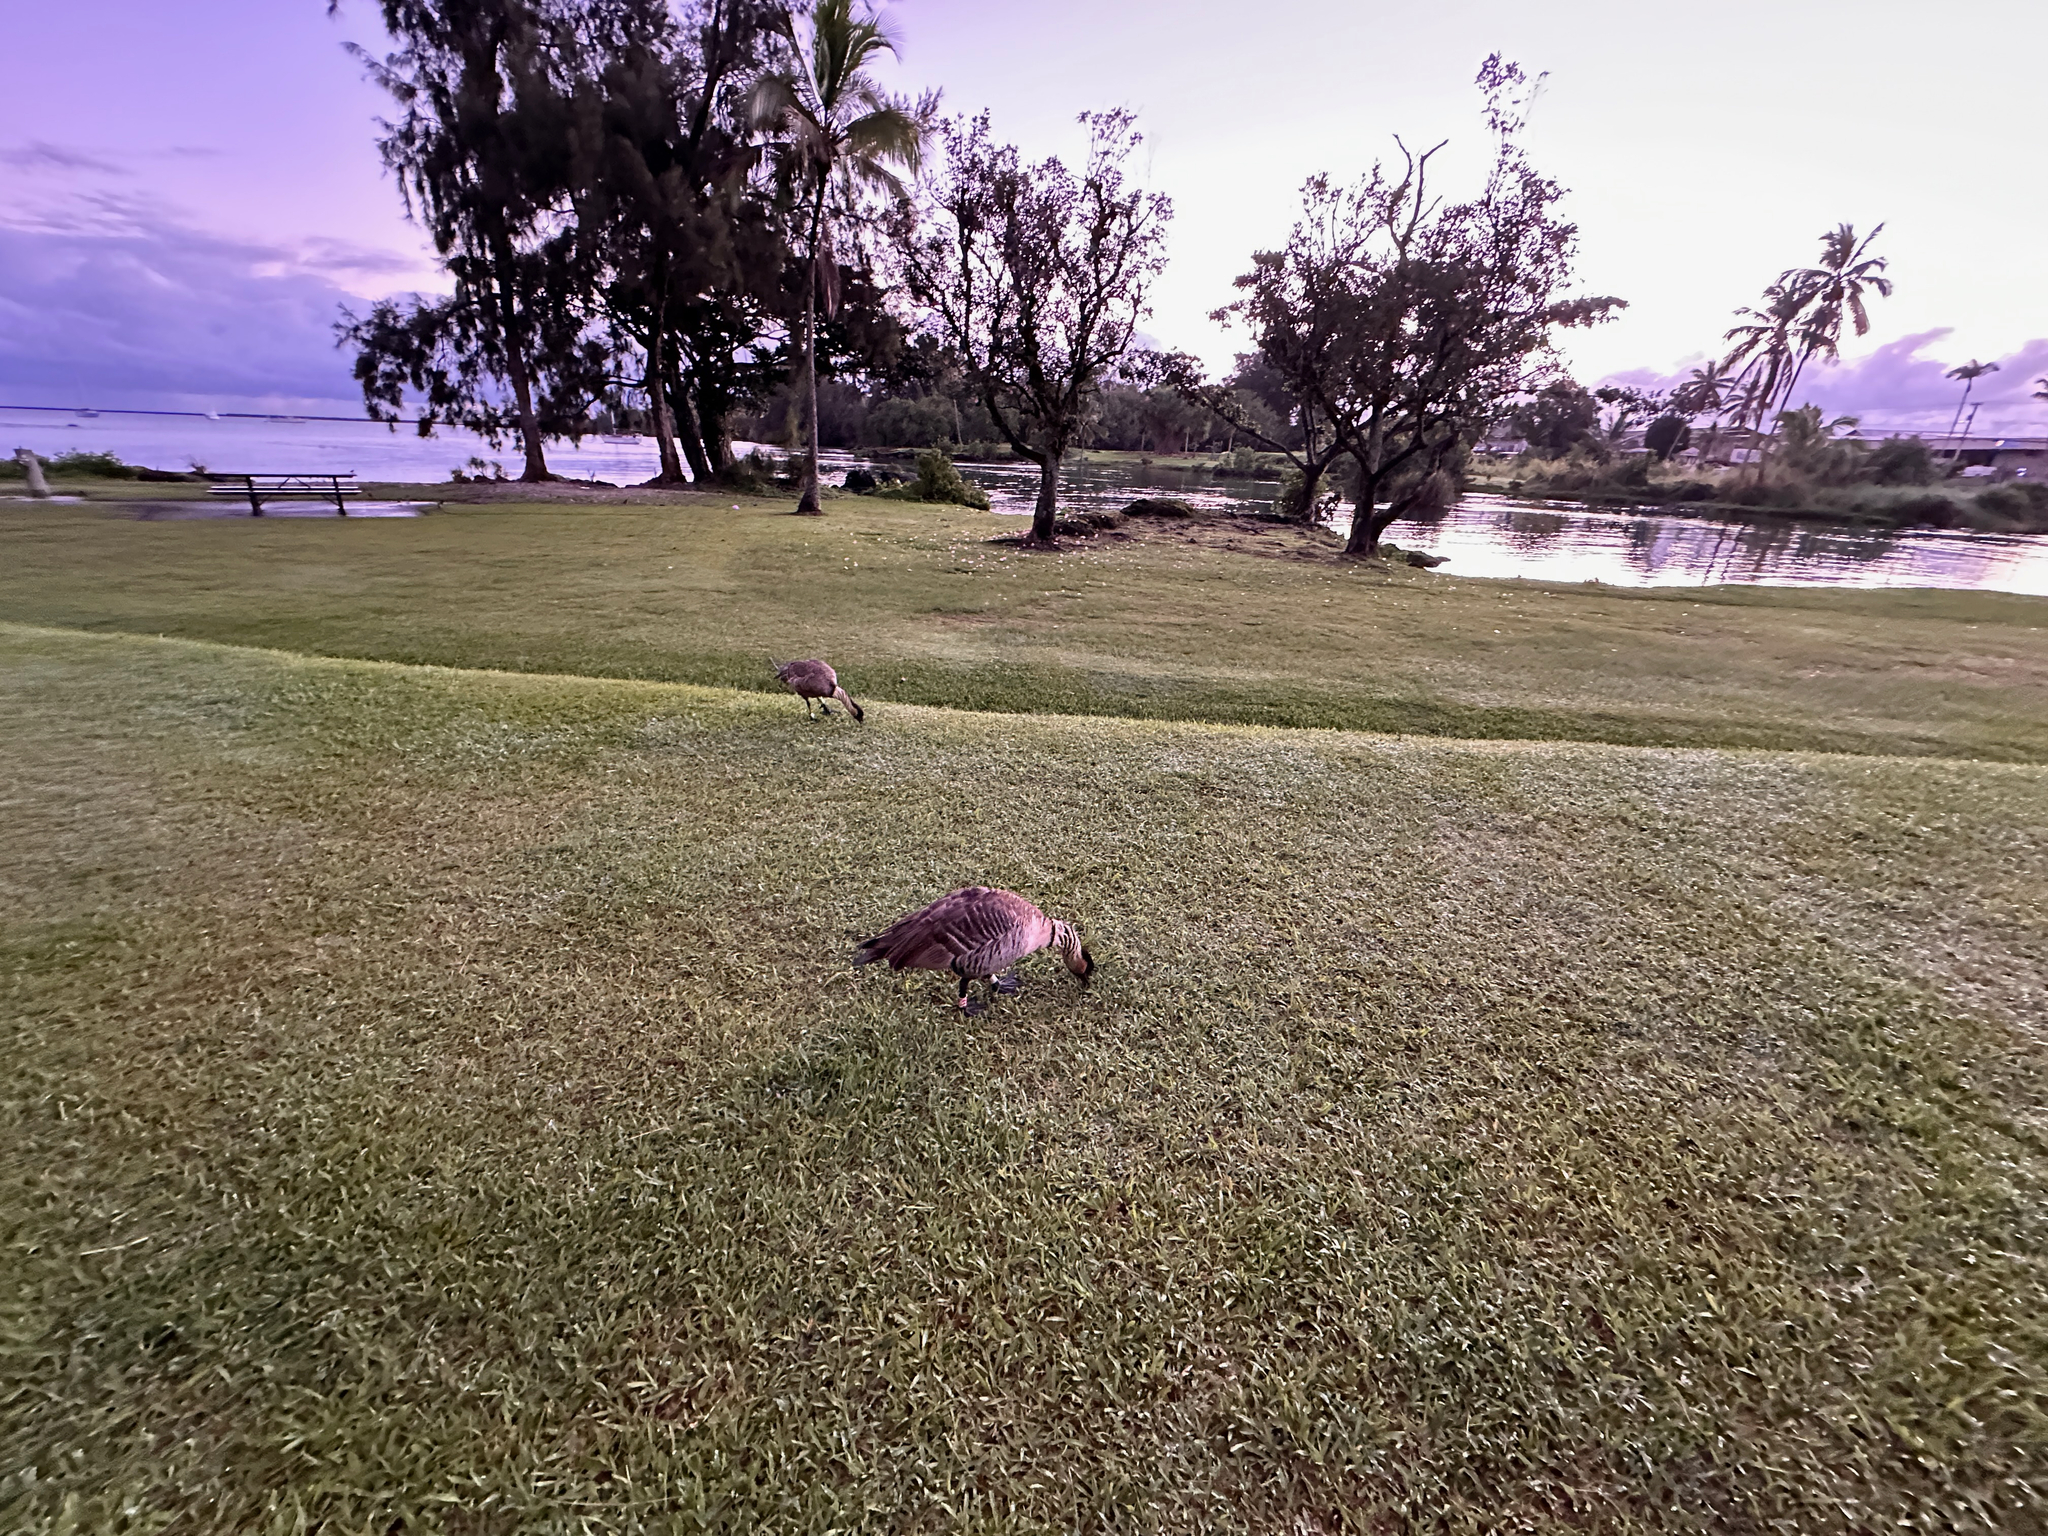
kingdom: Animalia
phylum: Chordata
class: Aves
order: Anseriformes
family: Anatidae
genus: Branta
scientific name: Branta sandvicensis
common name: Nene
